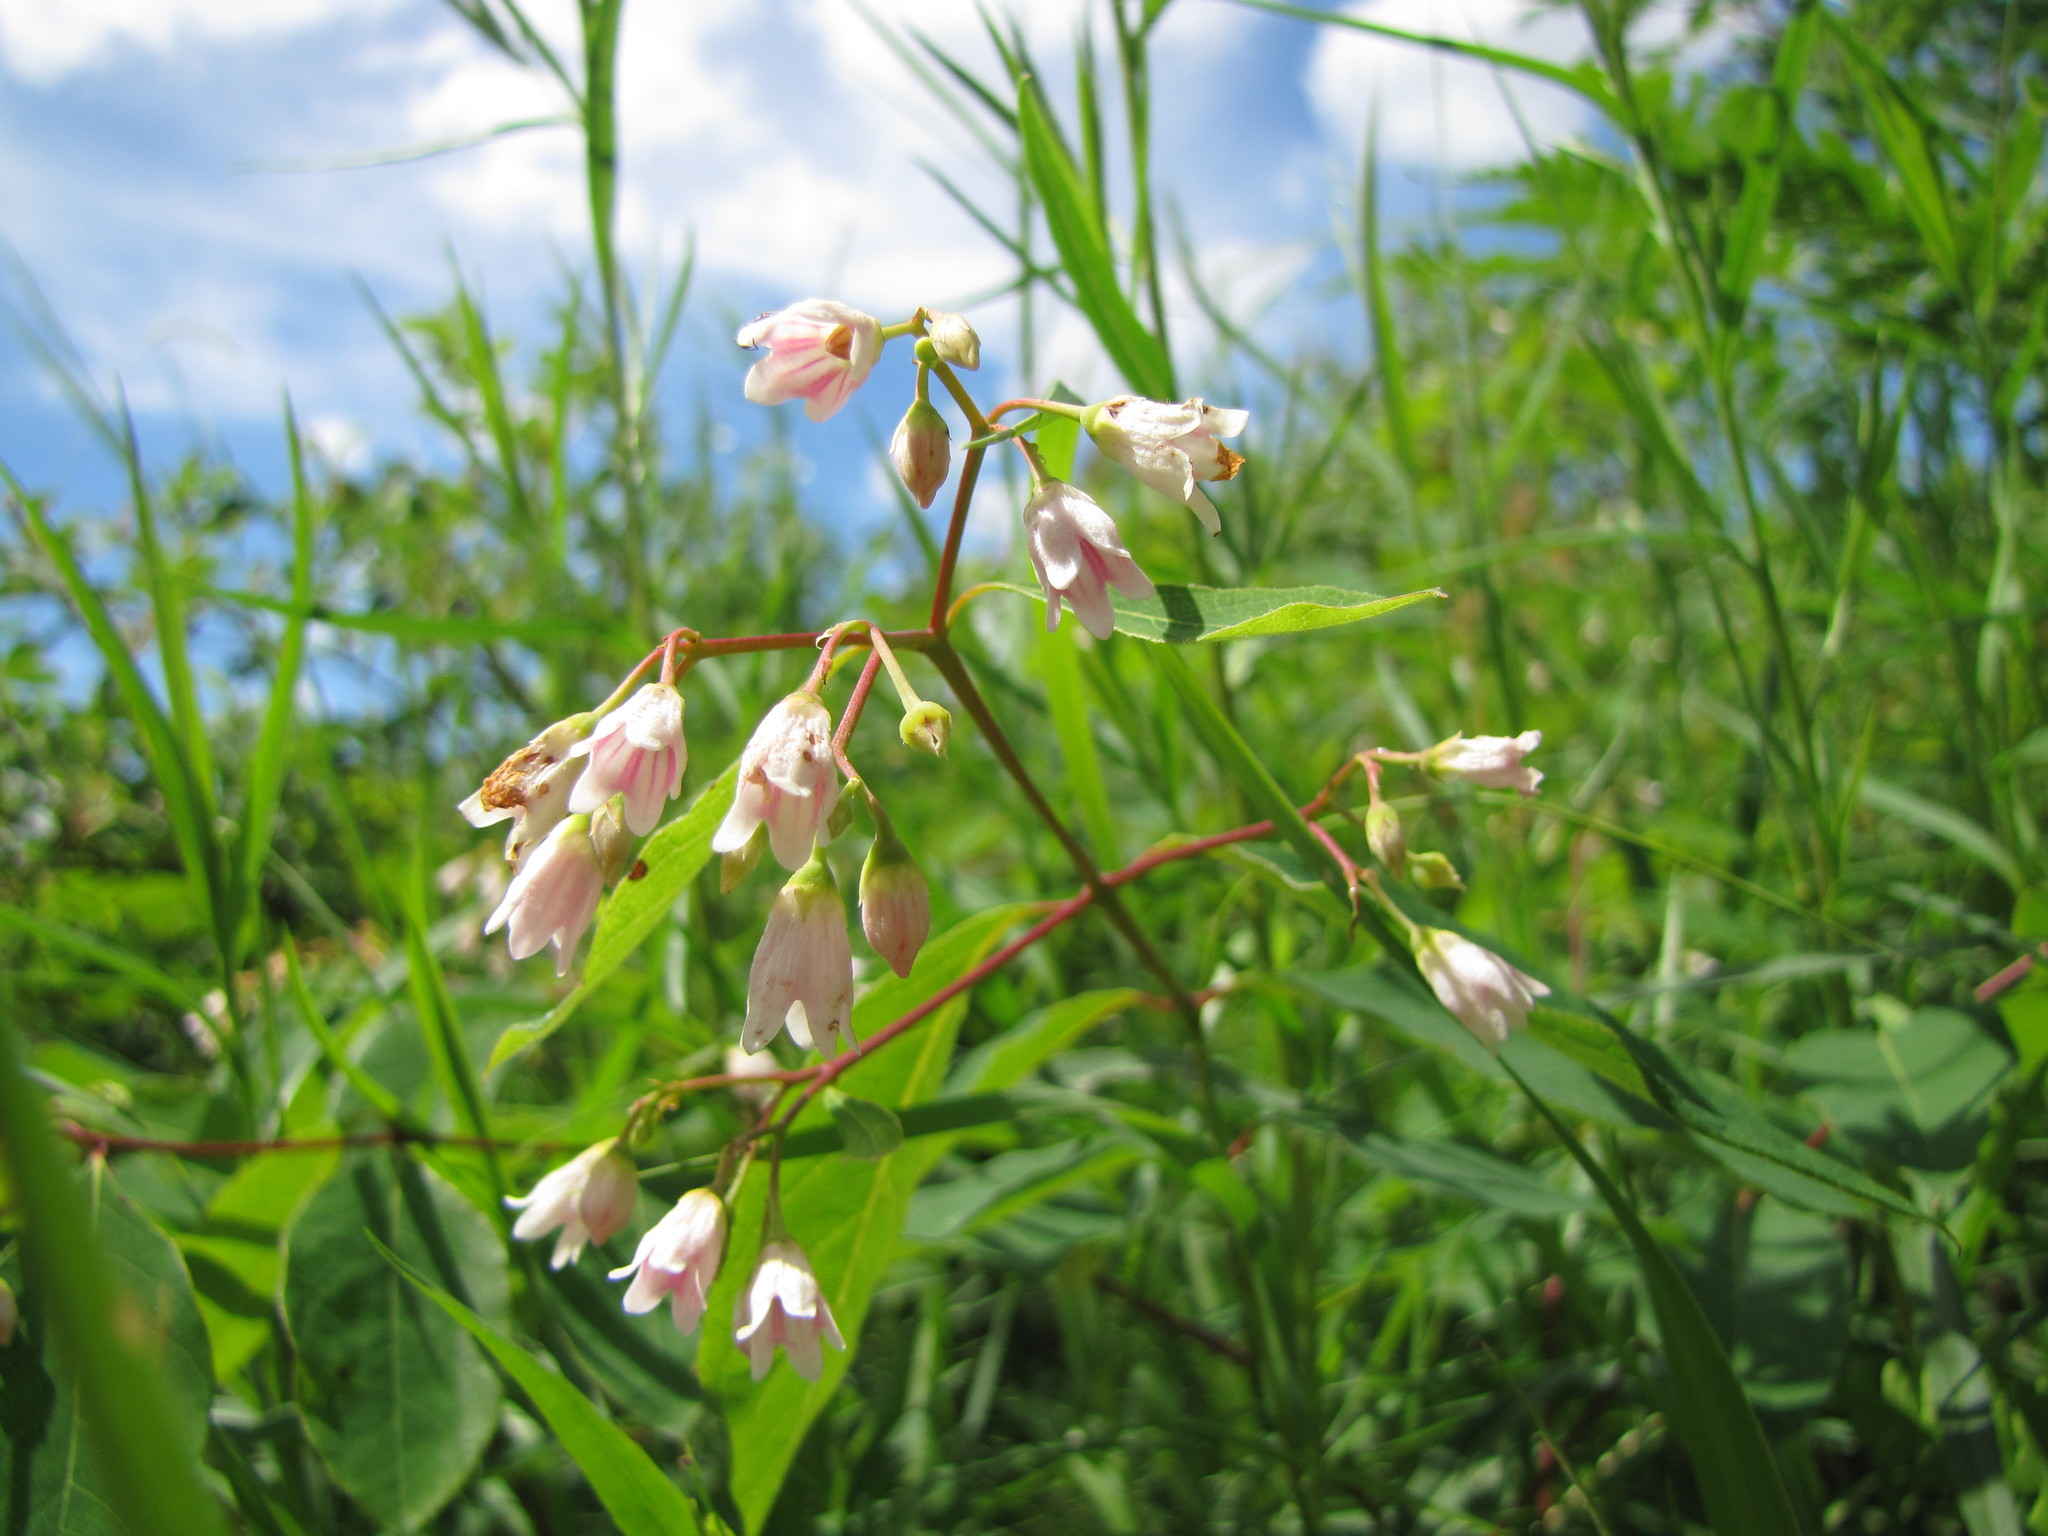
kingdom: Plantae
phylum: Tracheophyta
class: Magnoliopsida
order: Gentianales
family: Apocynaceae
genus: Apocynum
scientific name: Apocynum androsaemifolium
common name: Spreading dogbane
